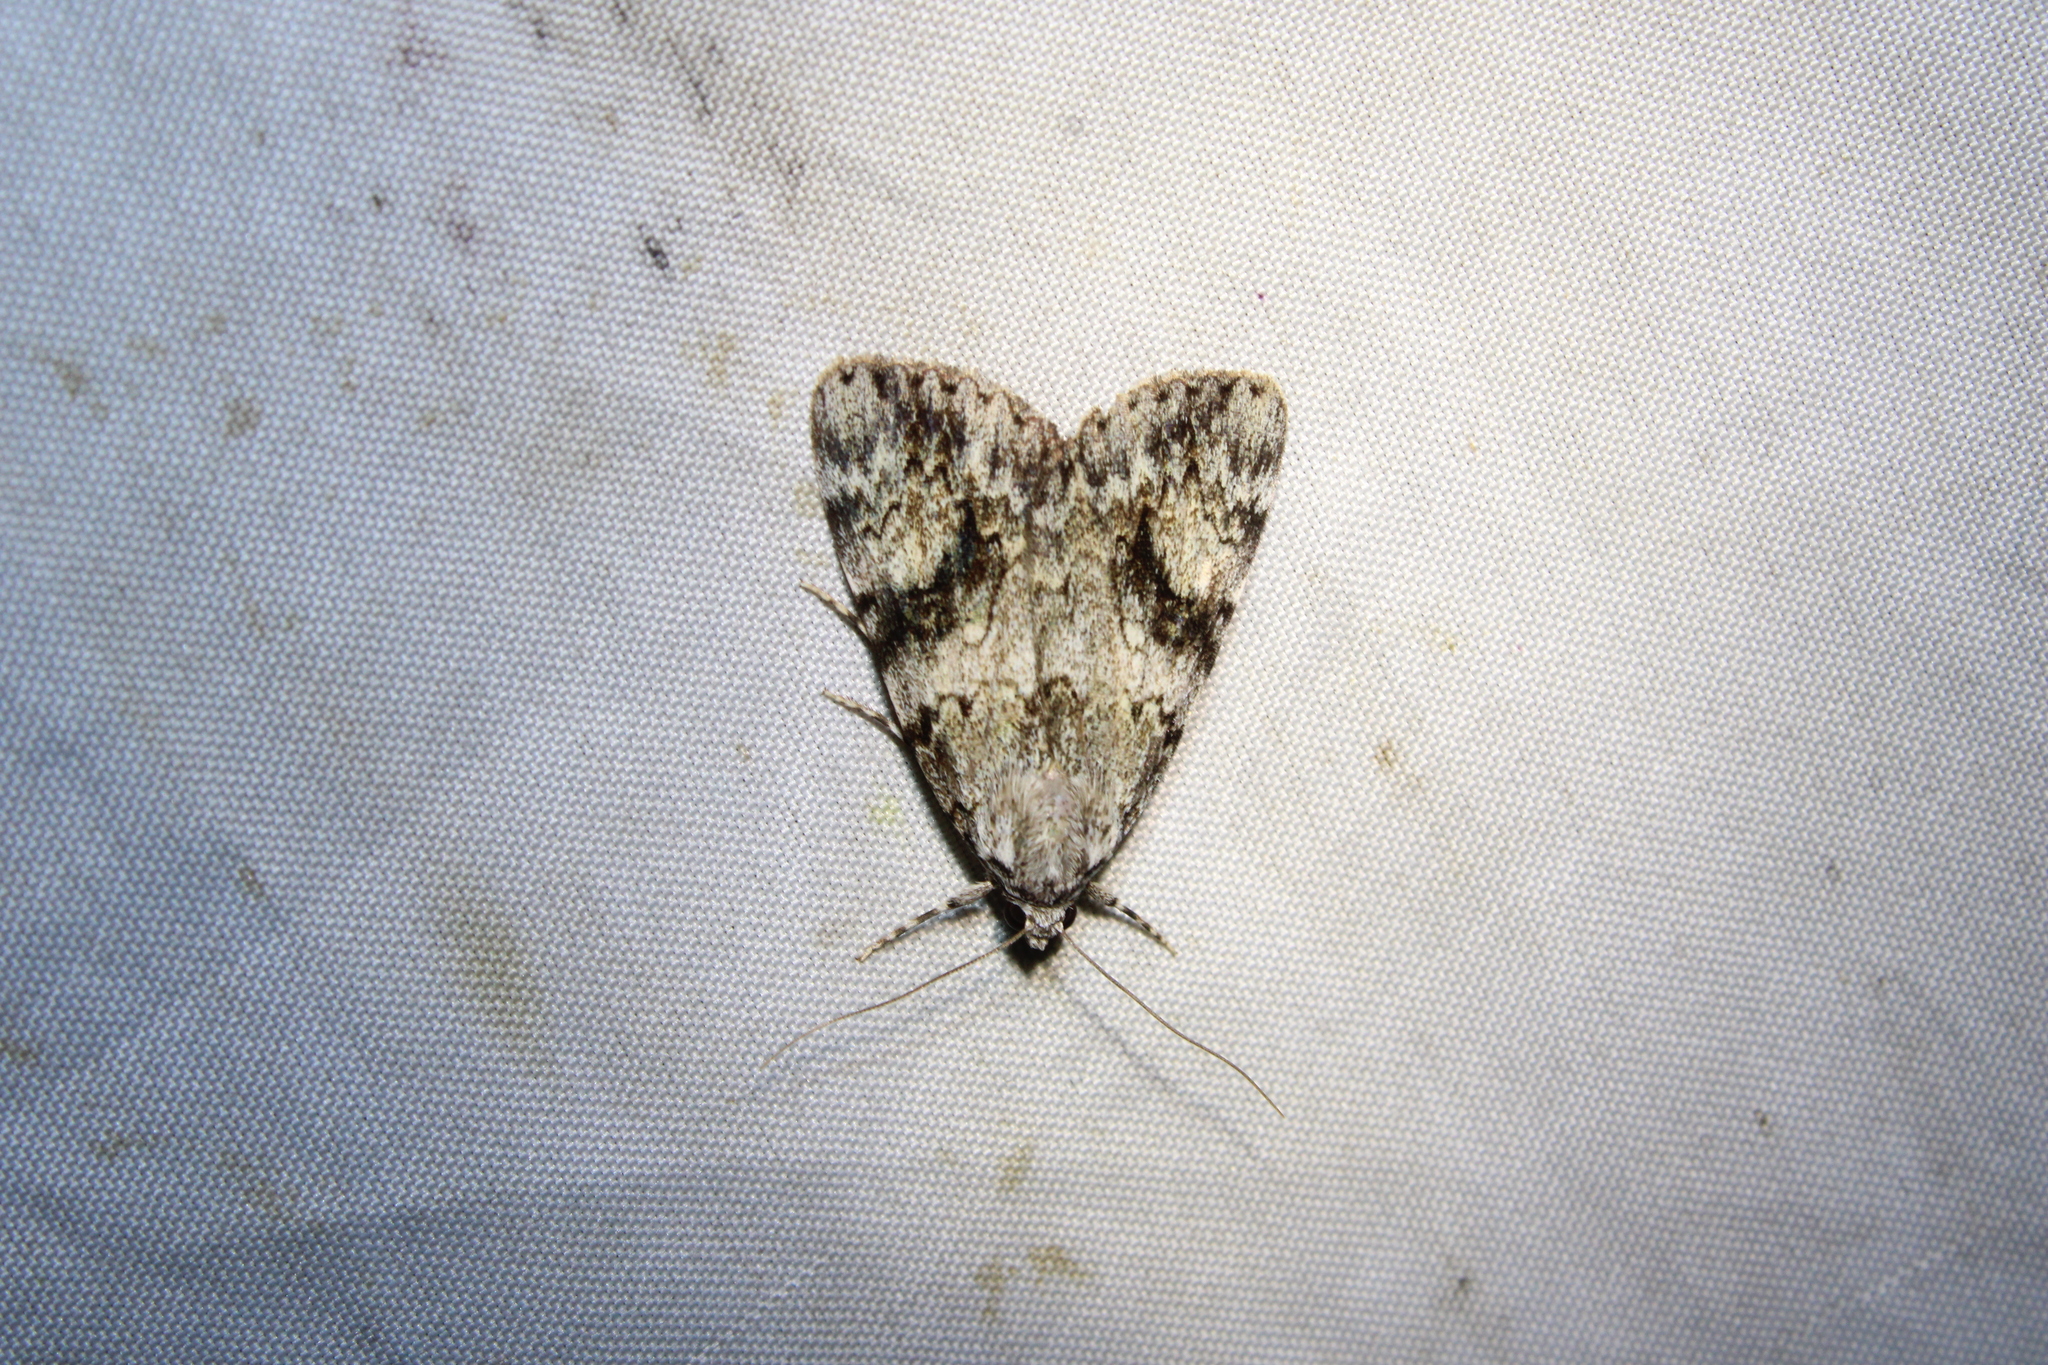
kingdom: Animalia
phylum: Arthropoda
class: Insecta
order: Lepidoptera
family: Erebidae
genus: Catocala
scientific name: Catocala amica
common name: Girlfriend underwing
